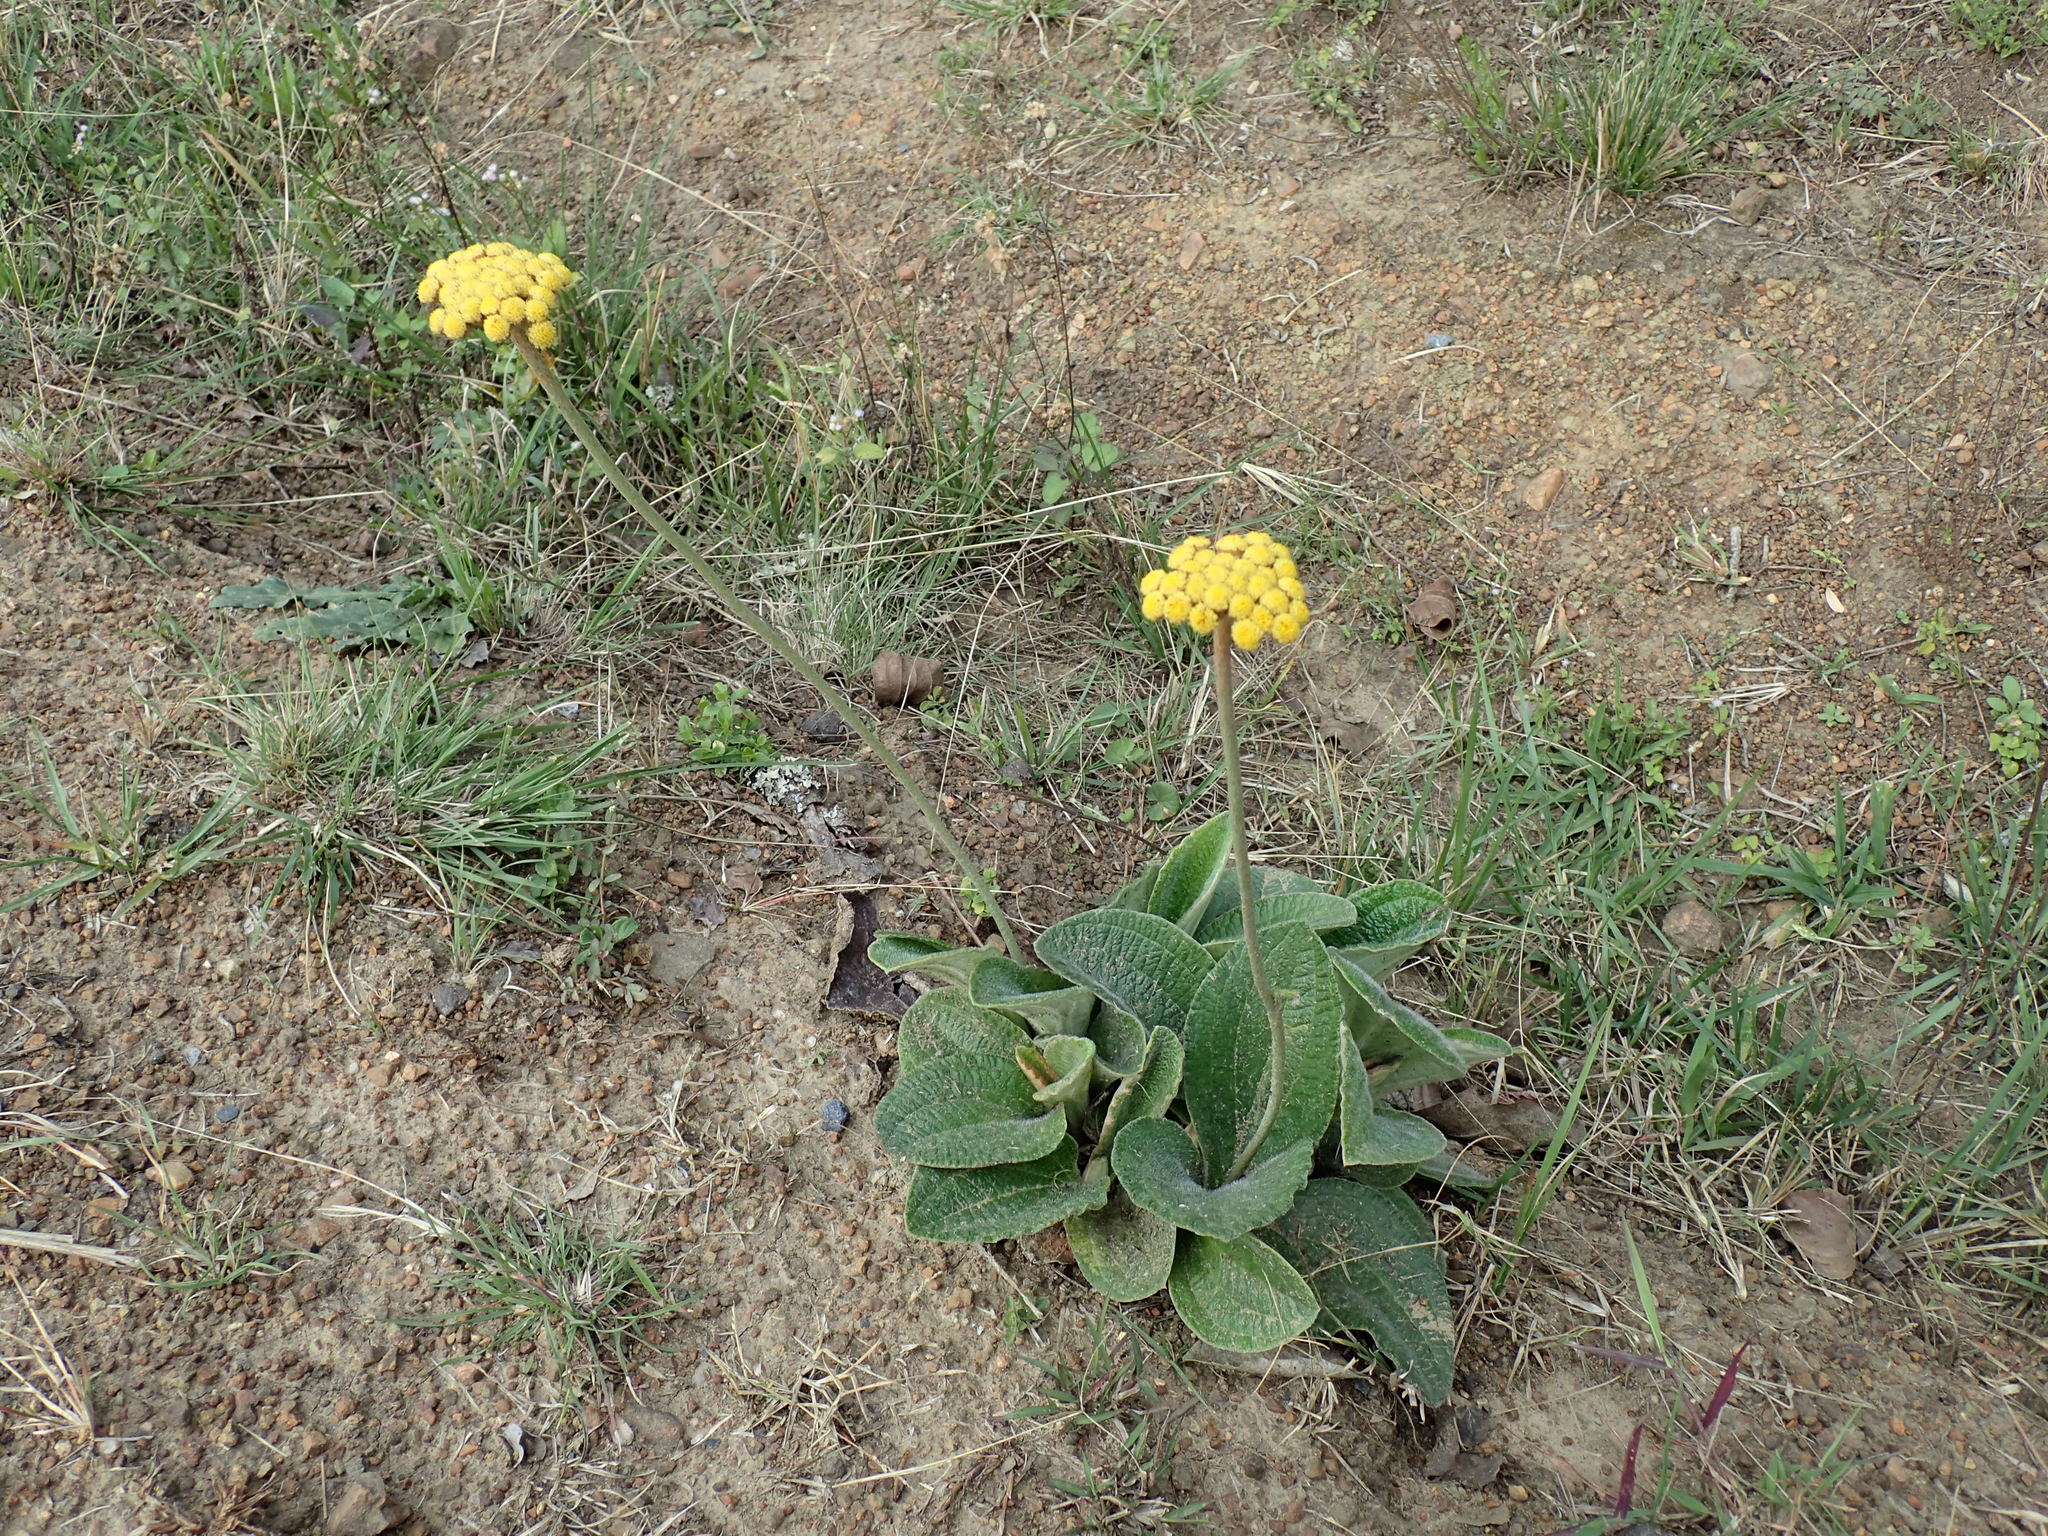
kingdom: Plantae
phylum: Tracheophyta
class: Magnoliopsida
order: Asterales
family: Asteraceae
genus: Helichrysum
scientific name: Helichrysum nudifolium
